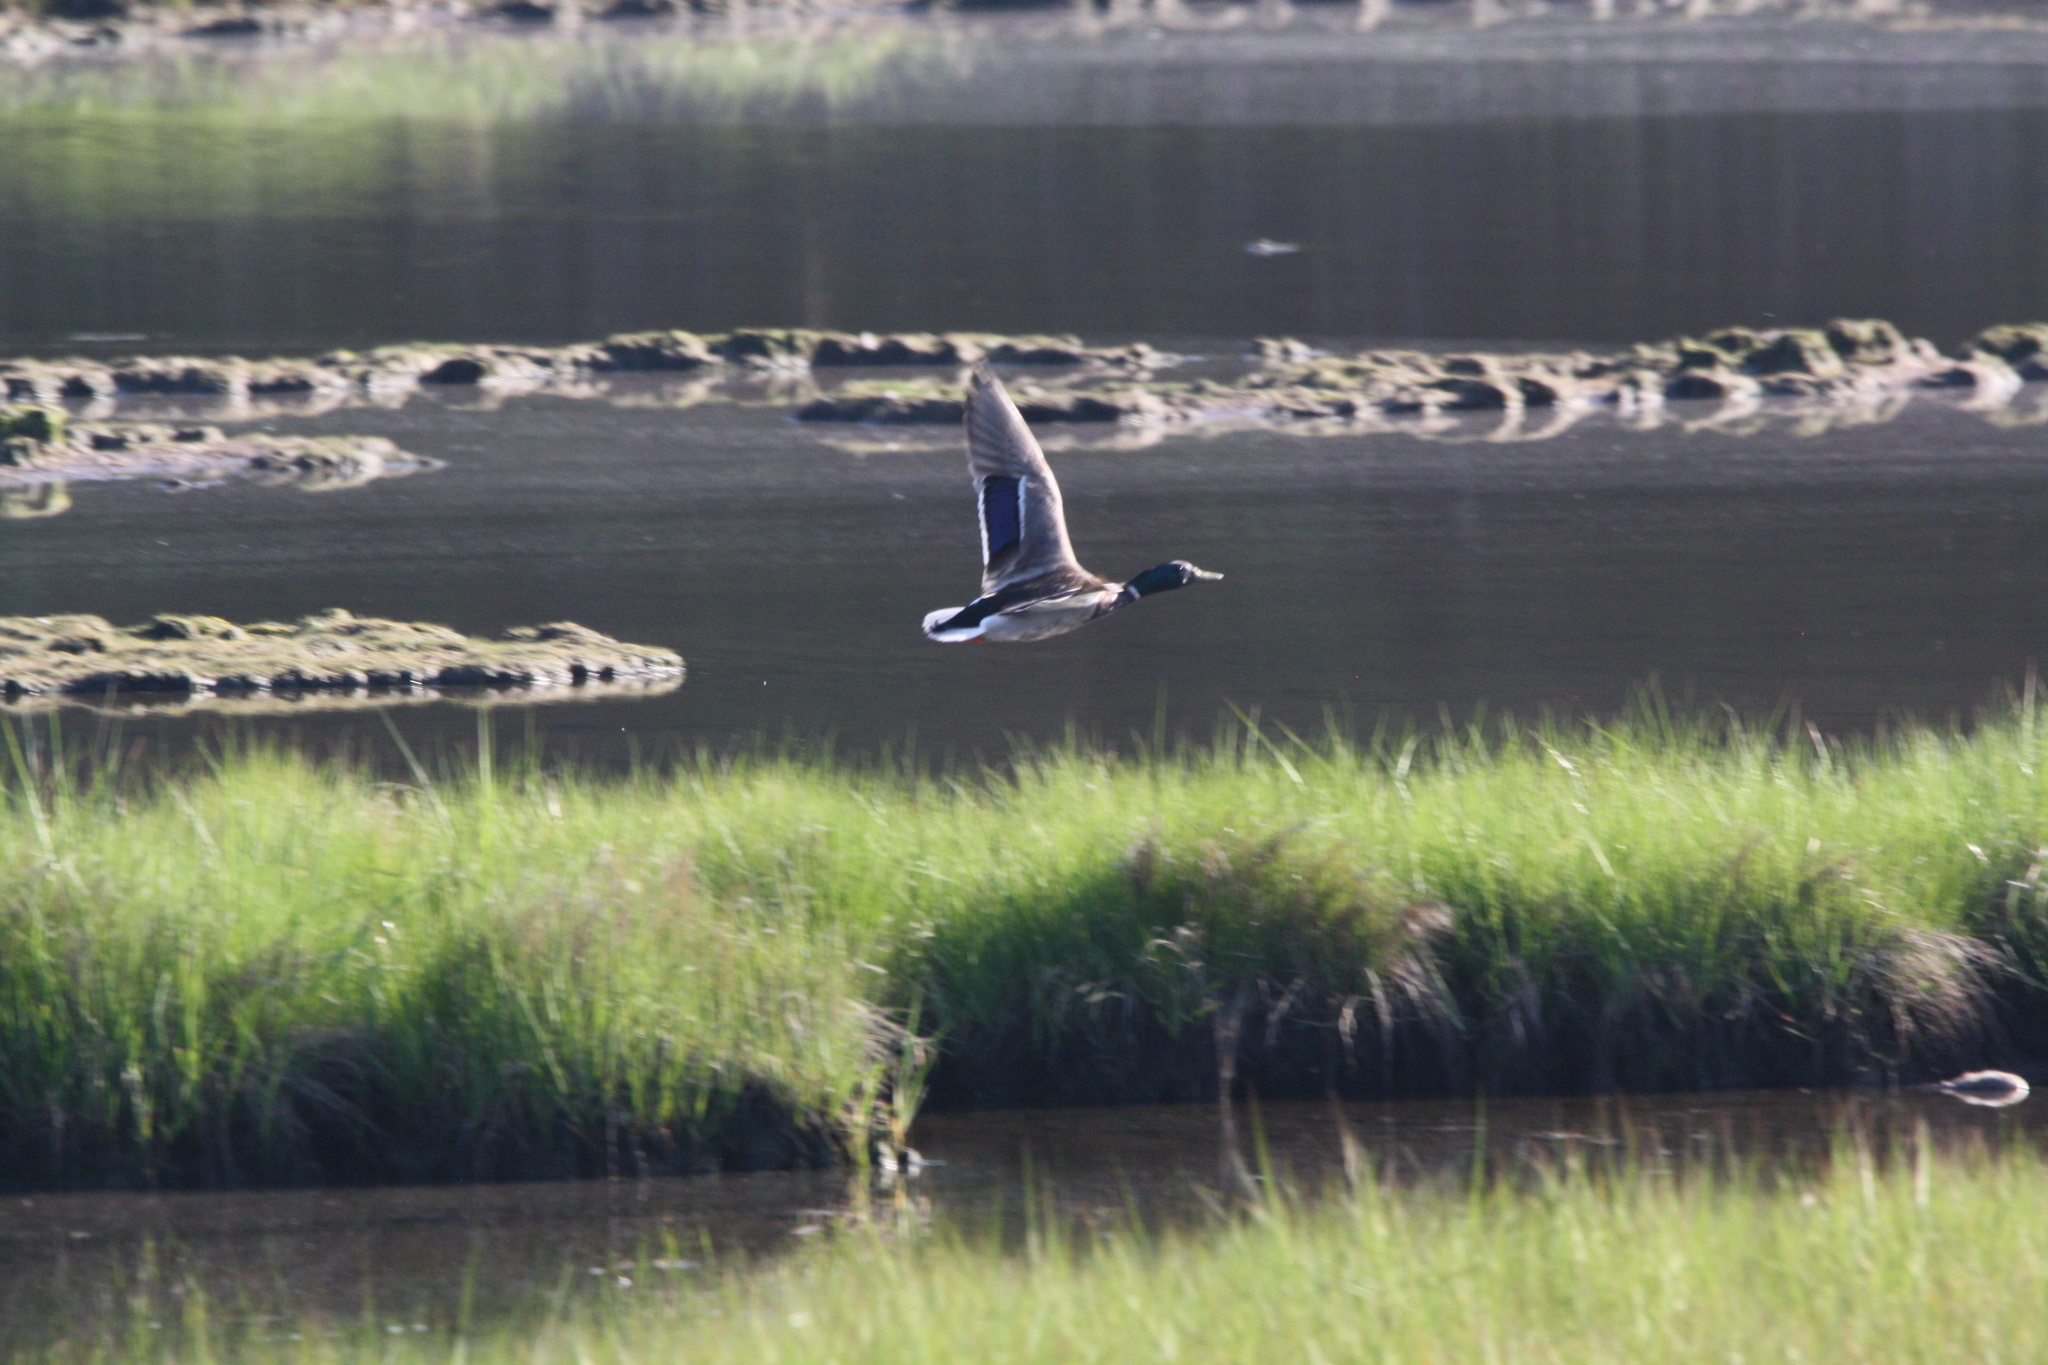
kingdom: Animalia
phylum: Chordata
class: Aves
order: Anseriformes
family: Anatidae
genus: Anas
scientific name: Anas platyrhynchos
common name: Mallard
